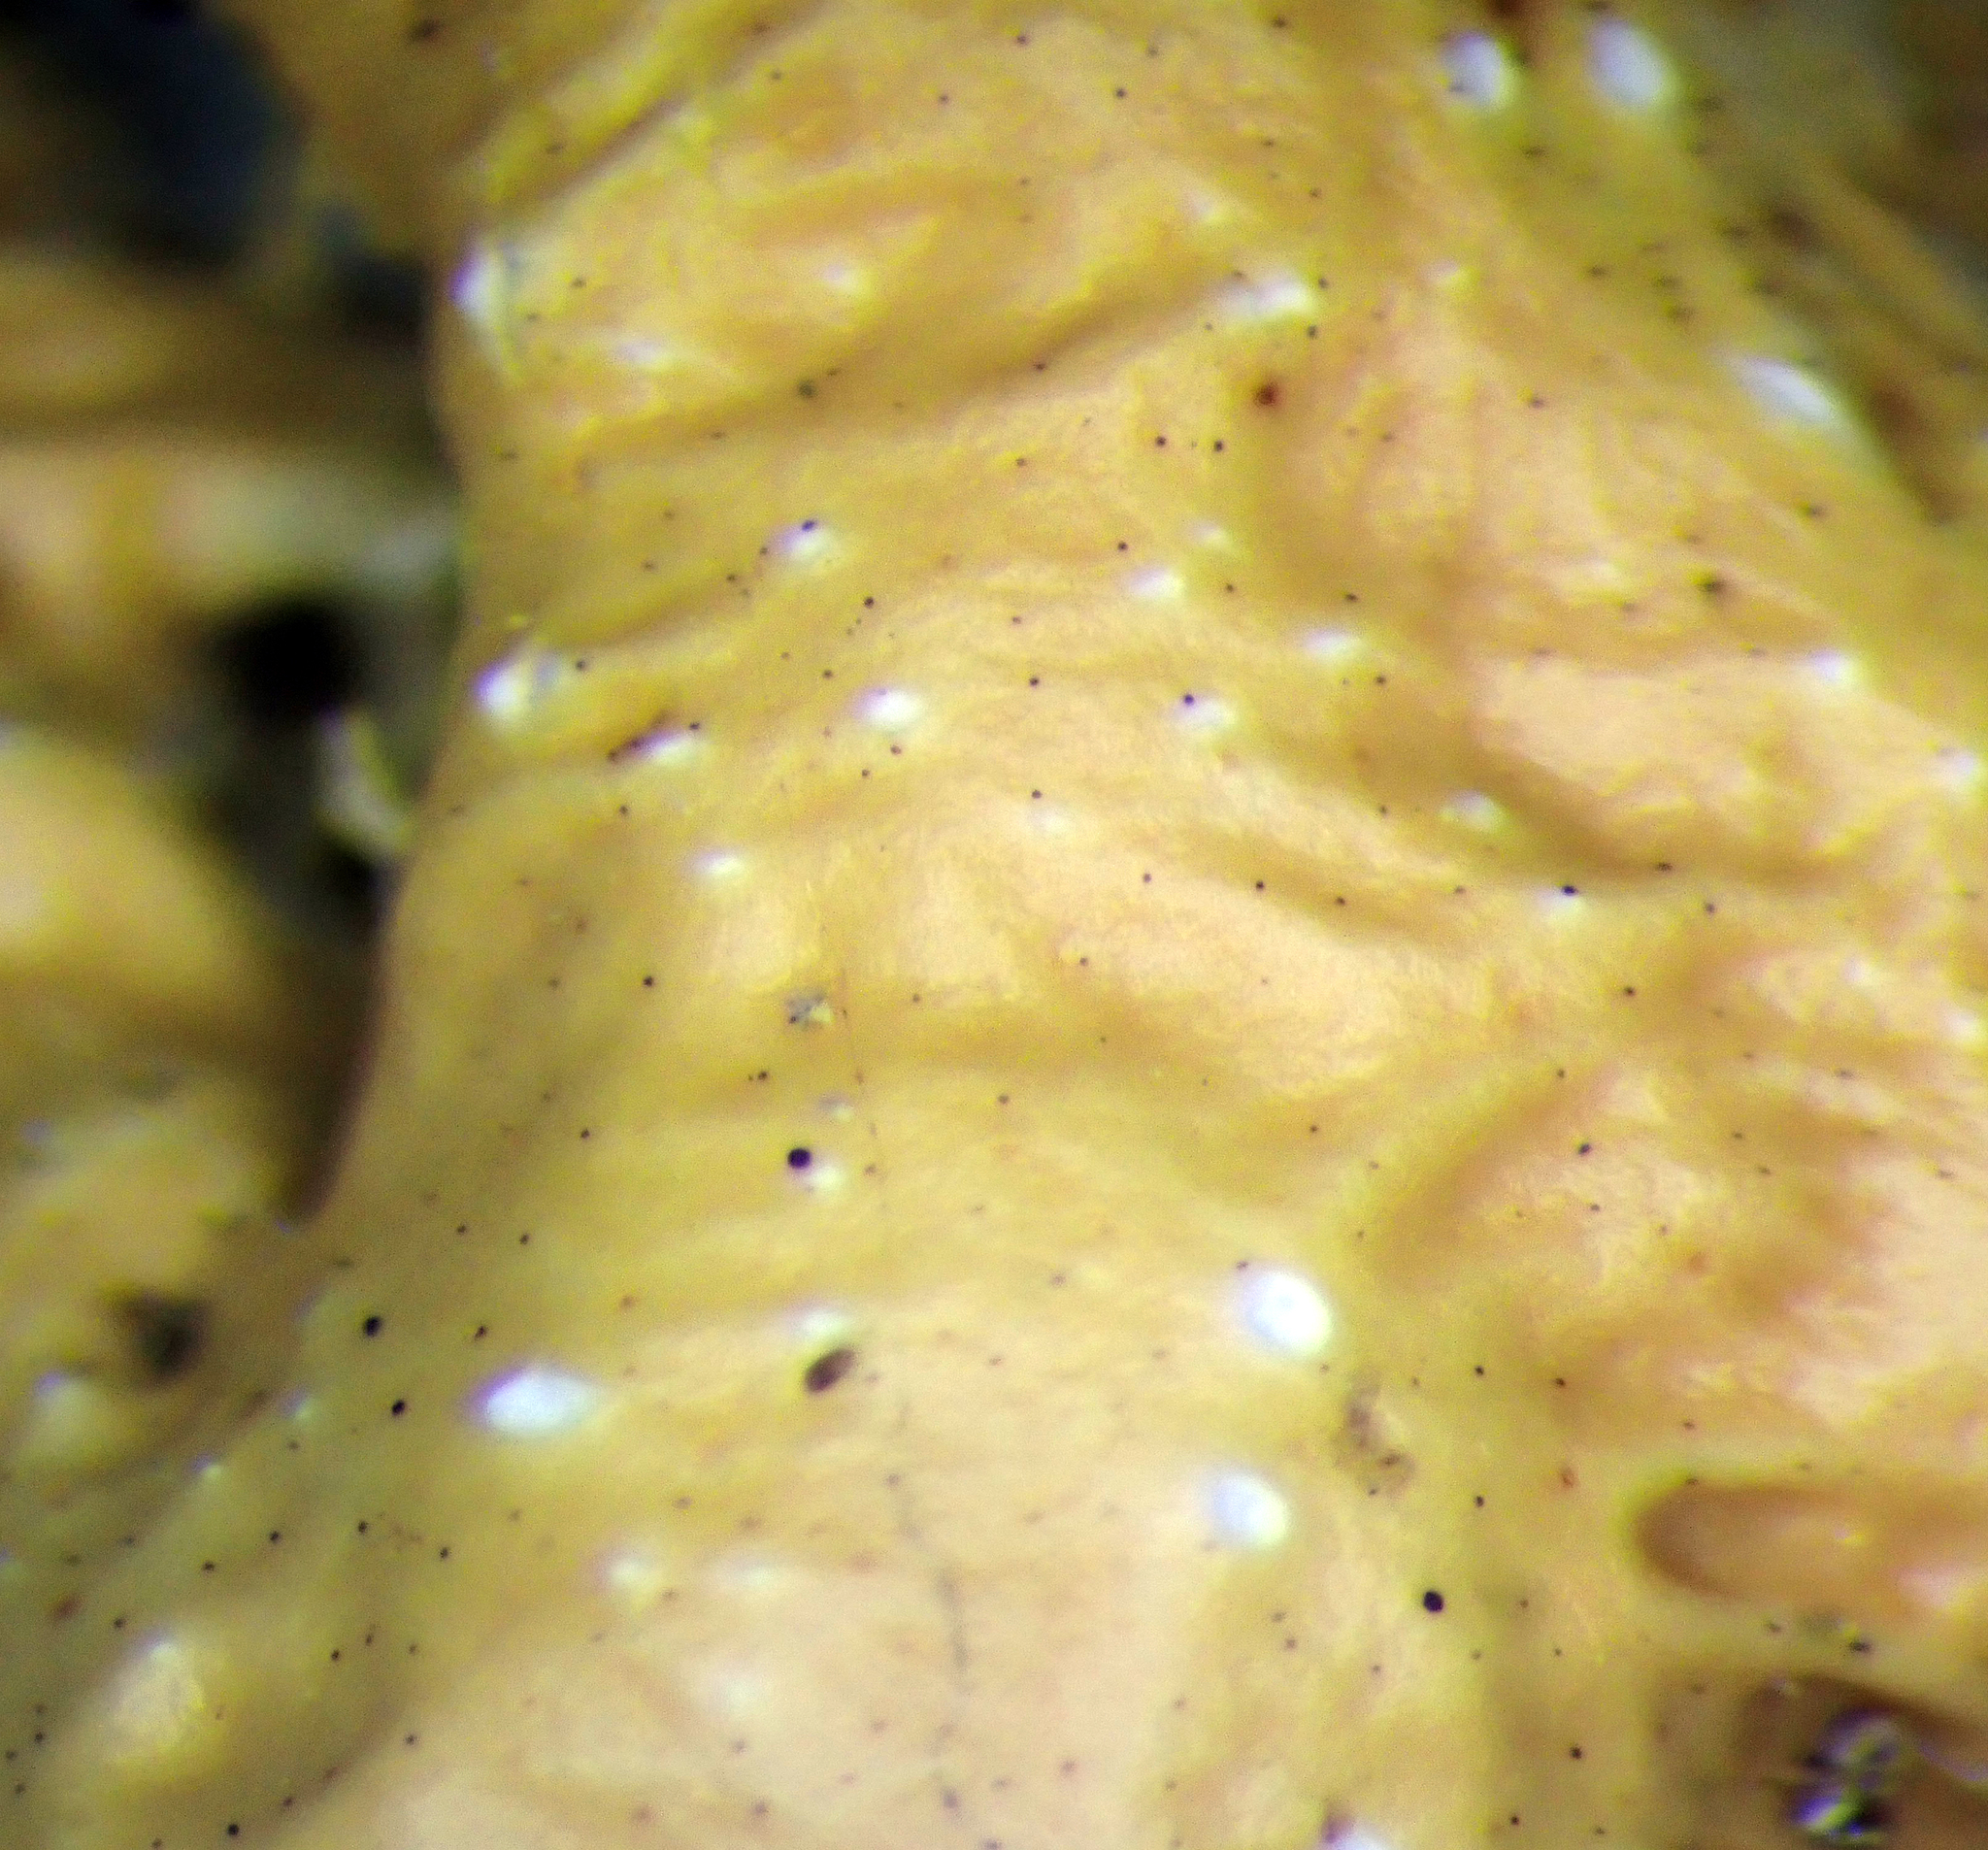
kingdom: Fungi
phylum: Ascomycota
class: Lecanoromycetes
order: Peltigerales
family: Lobariaceae
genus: Pseudocyphellaria
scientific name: Pseudocyphellaria wilkinsii
